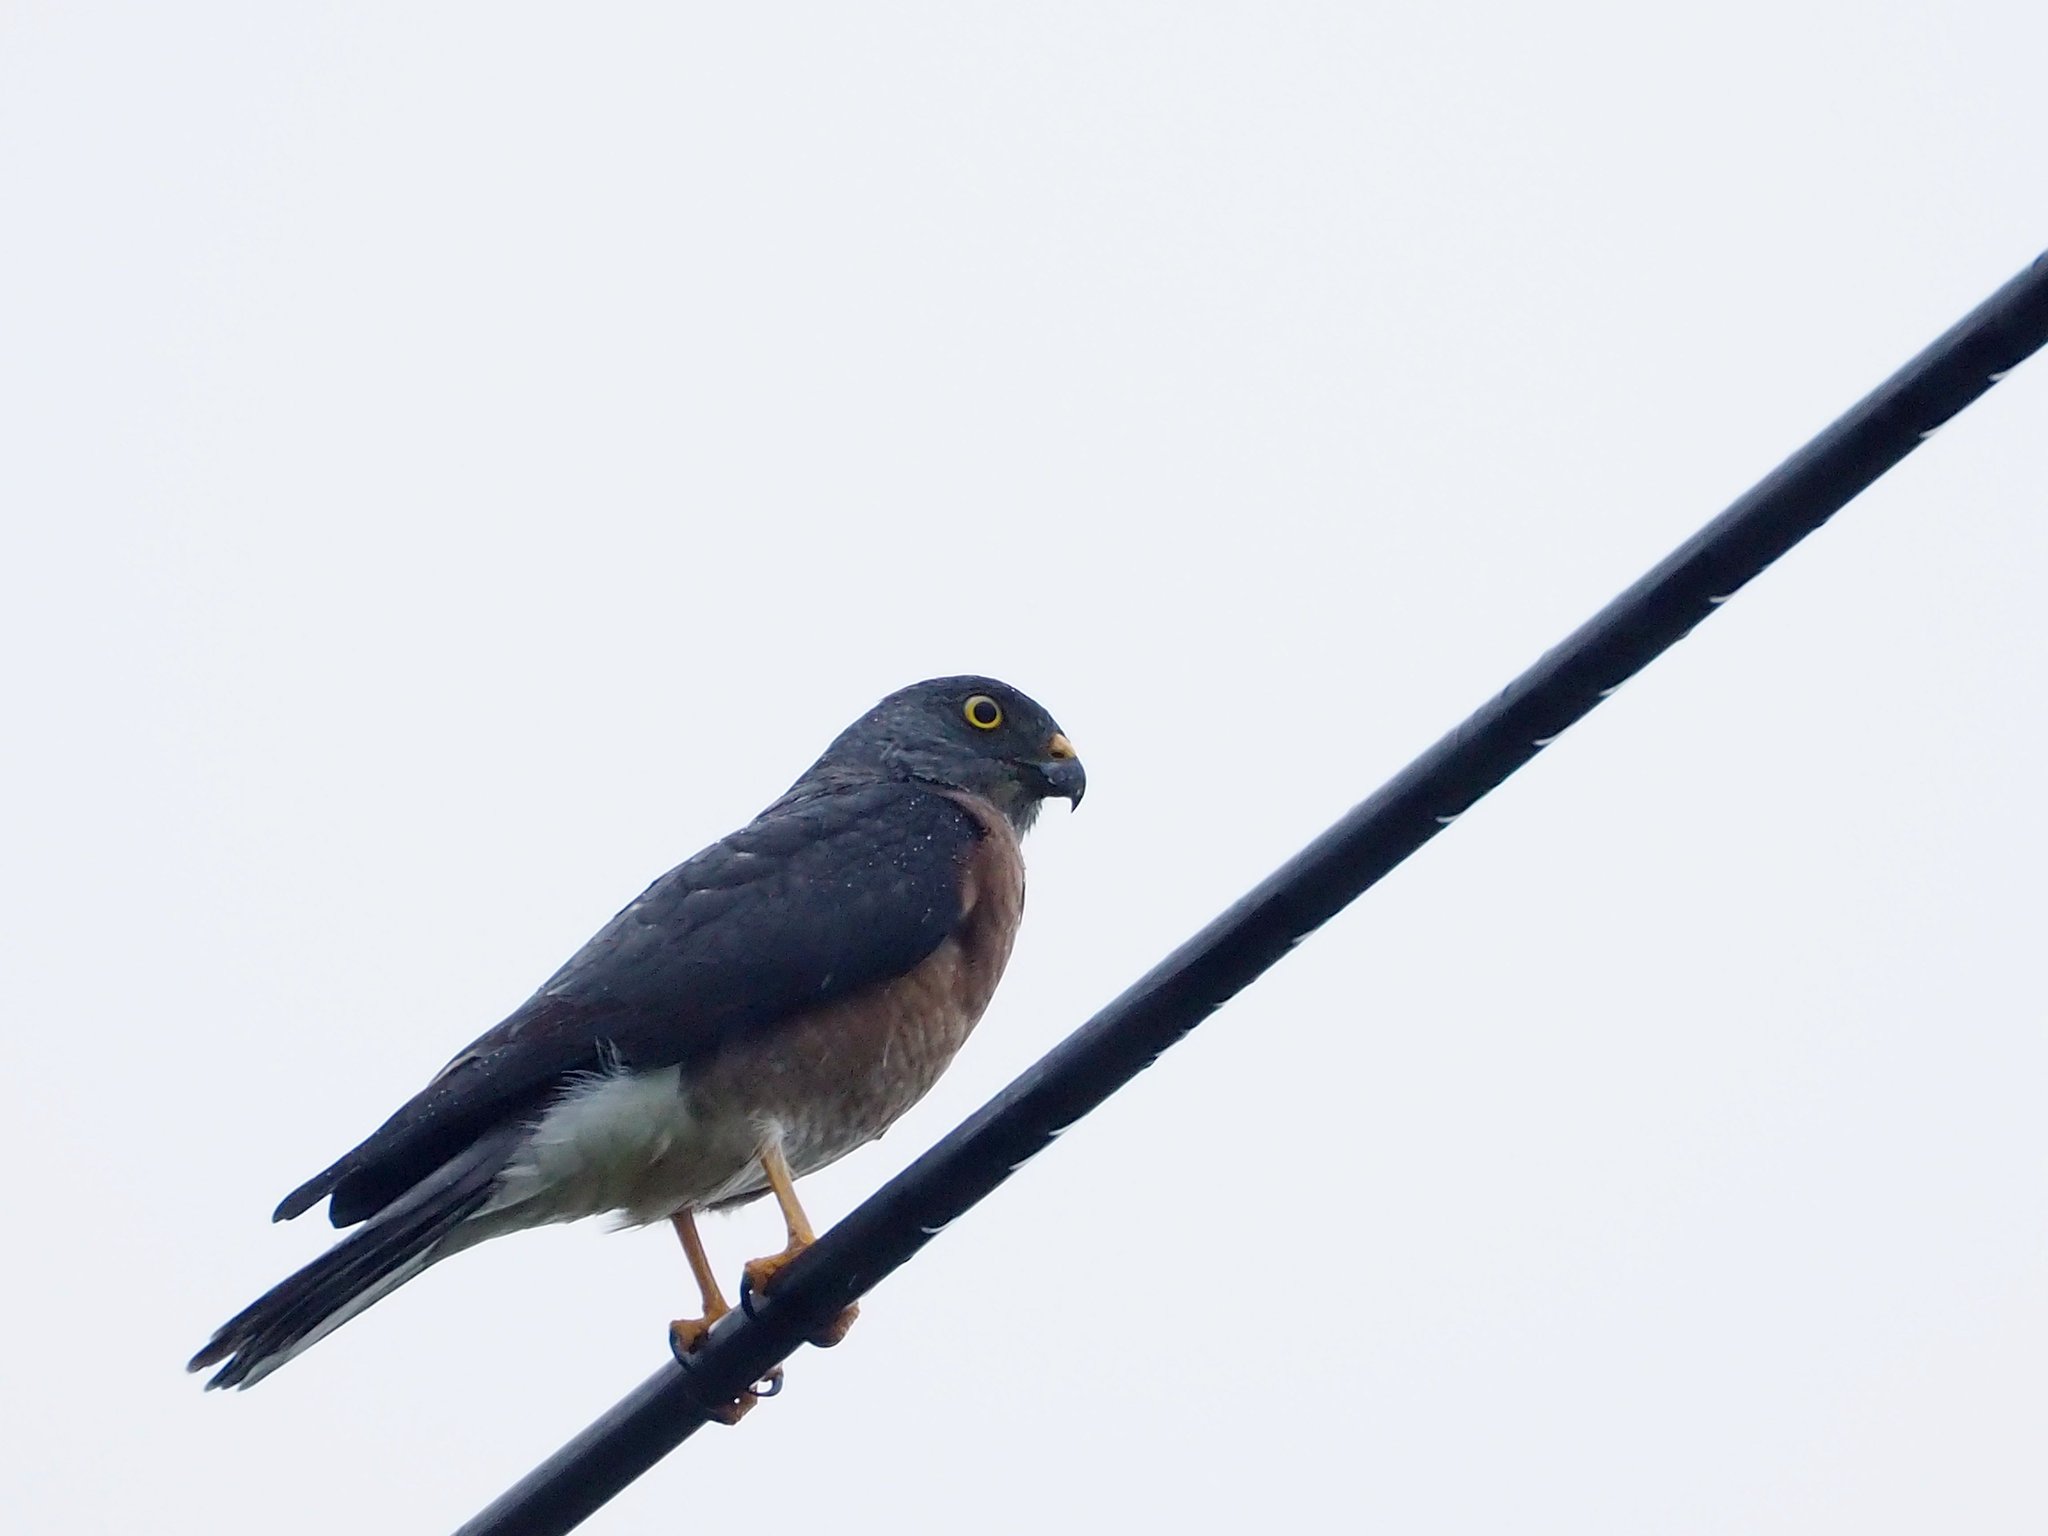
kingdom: Animalia
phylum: Chordata
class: Aves
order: Accipitriformes
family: Accipitridae
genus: Accipiter
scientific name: Accipiter soloensis
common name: Chinese sparrowhawk
